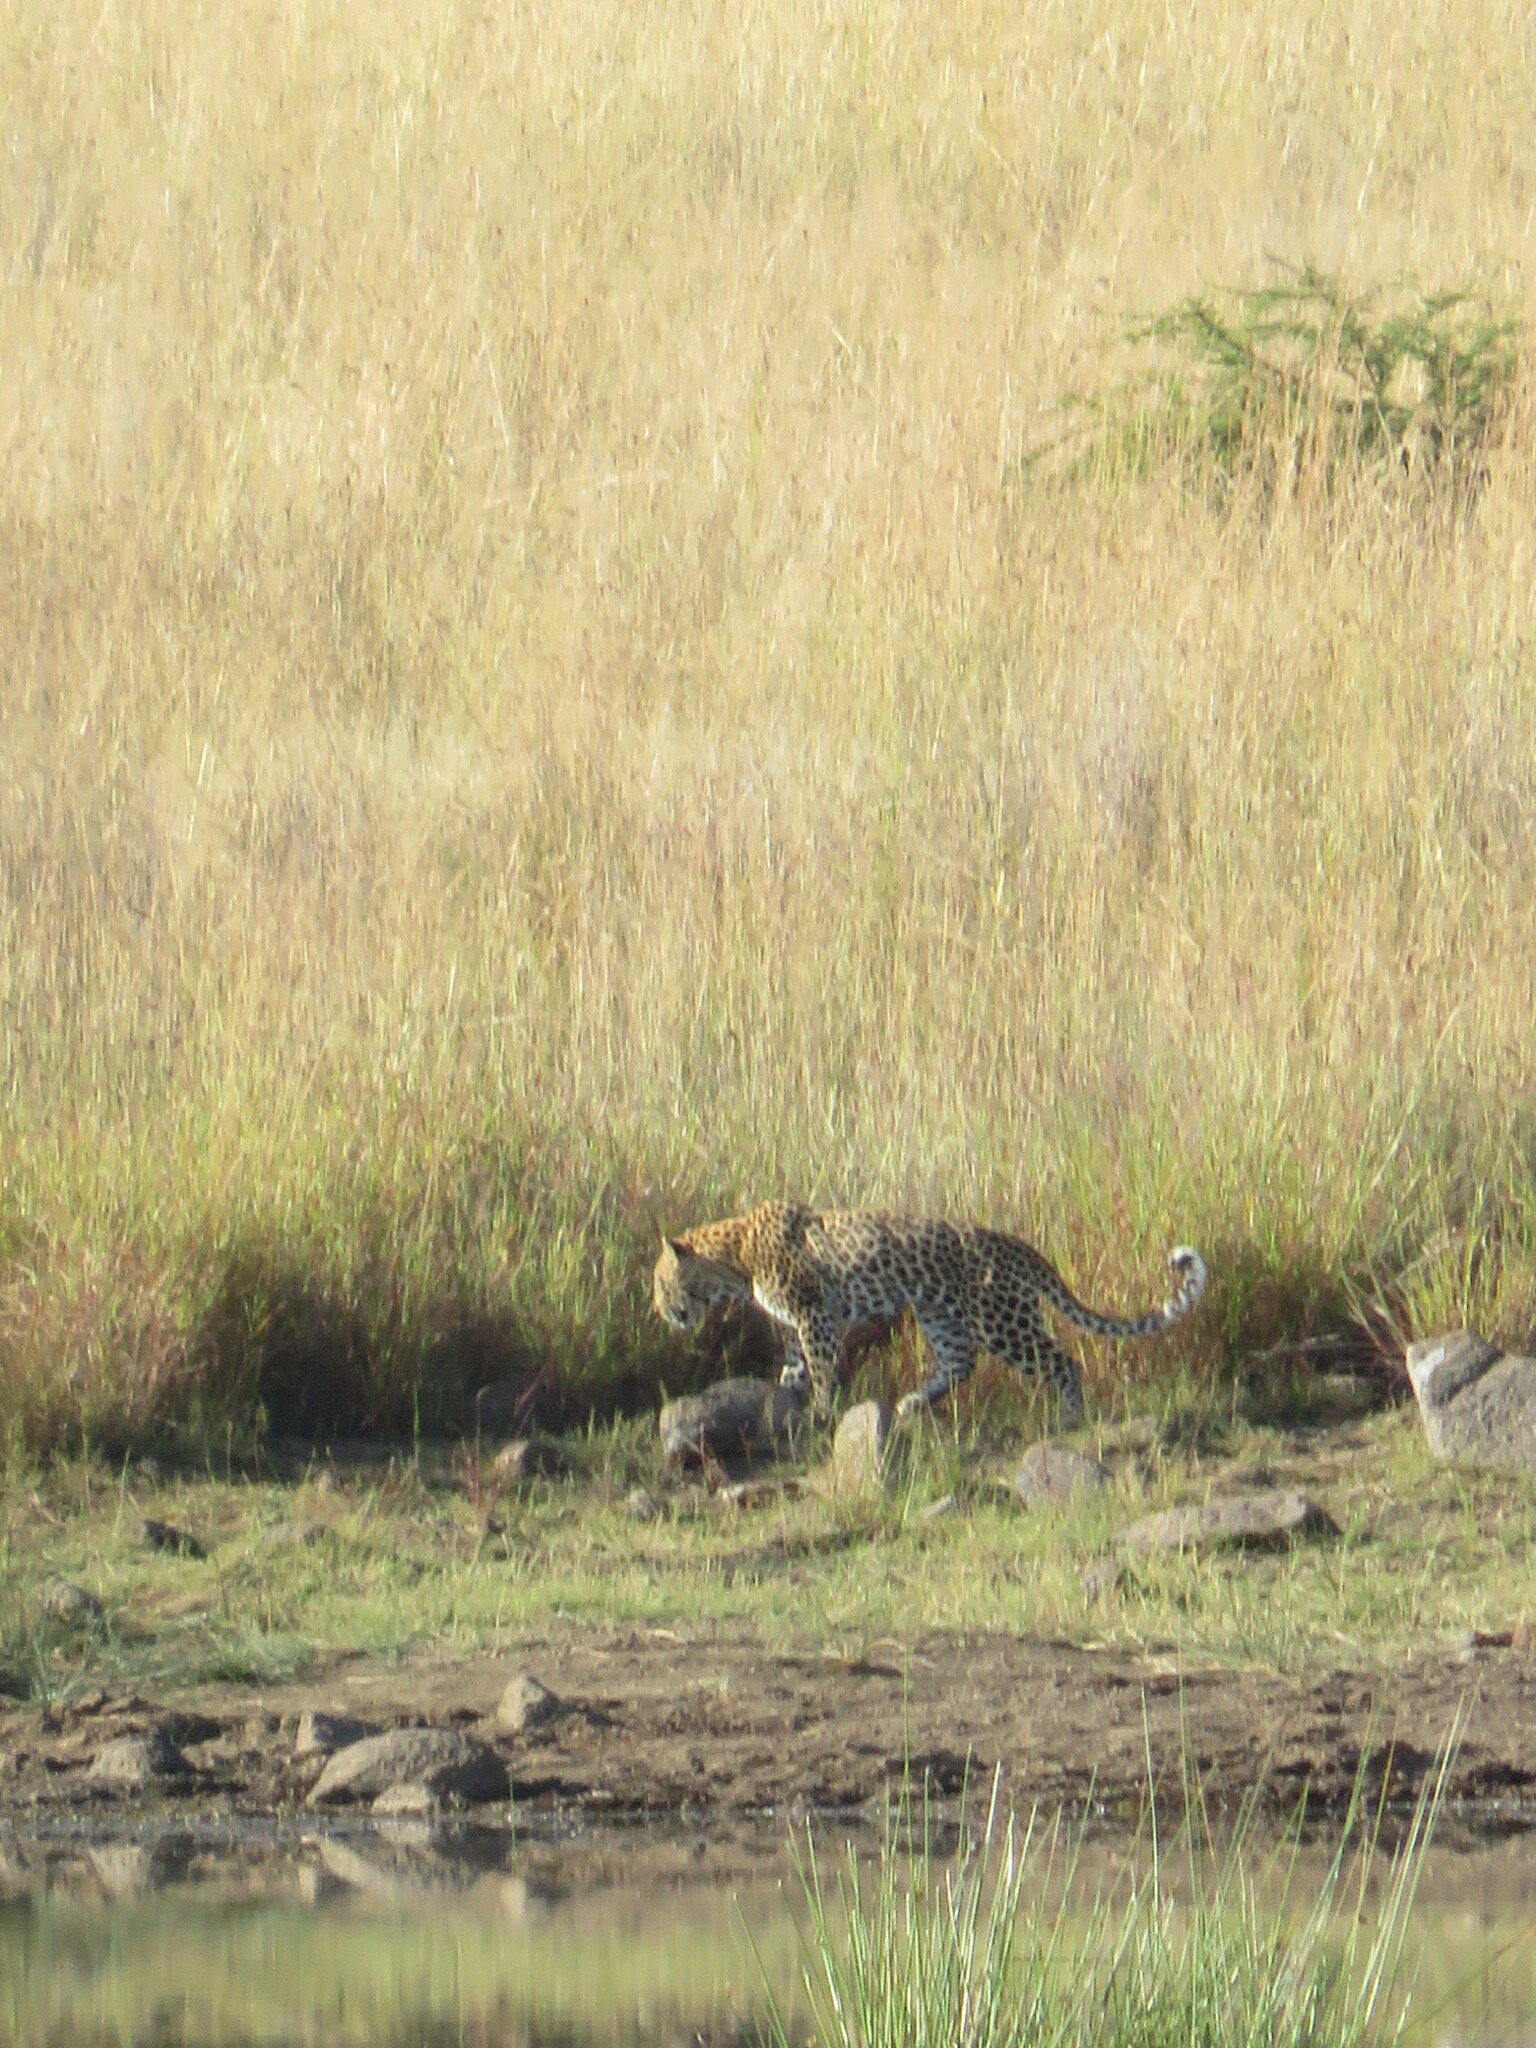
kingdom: Animalia
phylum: Chordata
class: Mammalia
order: Carnivora
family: Felidae
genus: Panthera
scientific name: Panthera pardus
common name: Leopard
